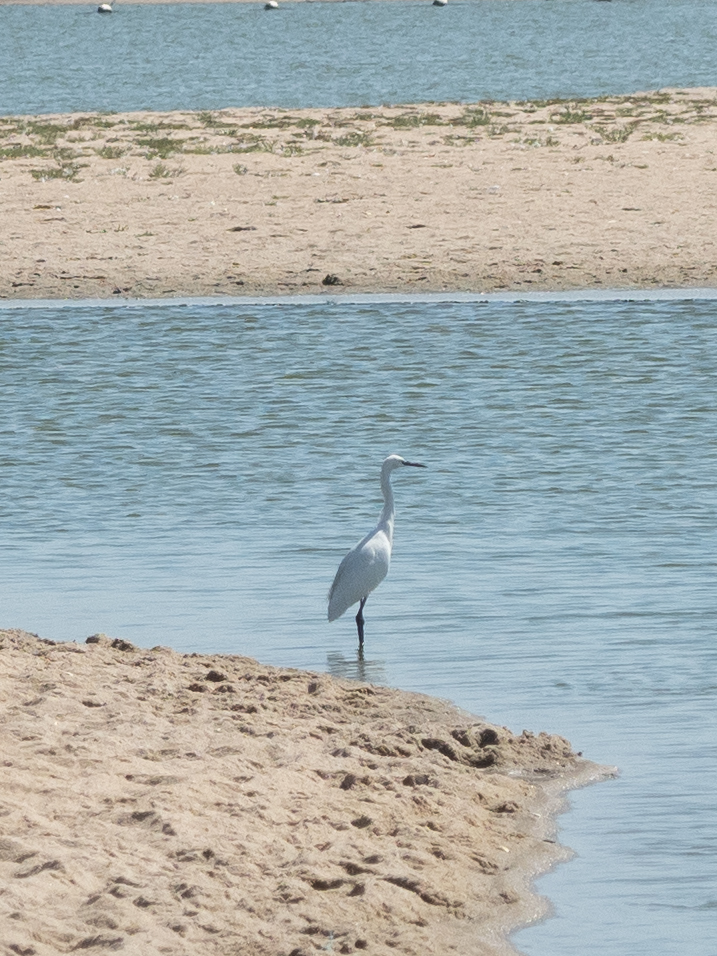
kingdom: Animalia
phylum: Chordata
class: Aves
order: Pelecaniformes
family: Ardeidae
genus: Egretta
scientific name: Egretta garzetta
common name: Little egret
